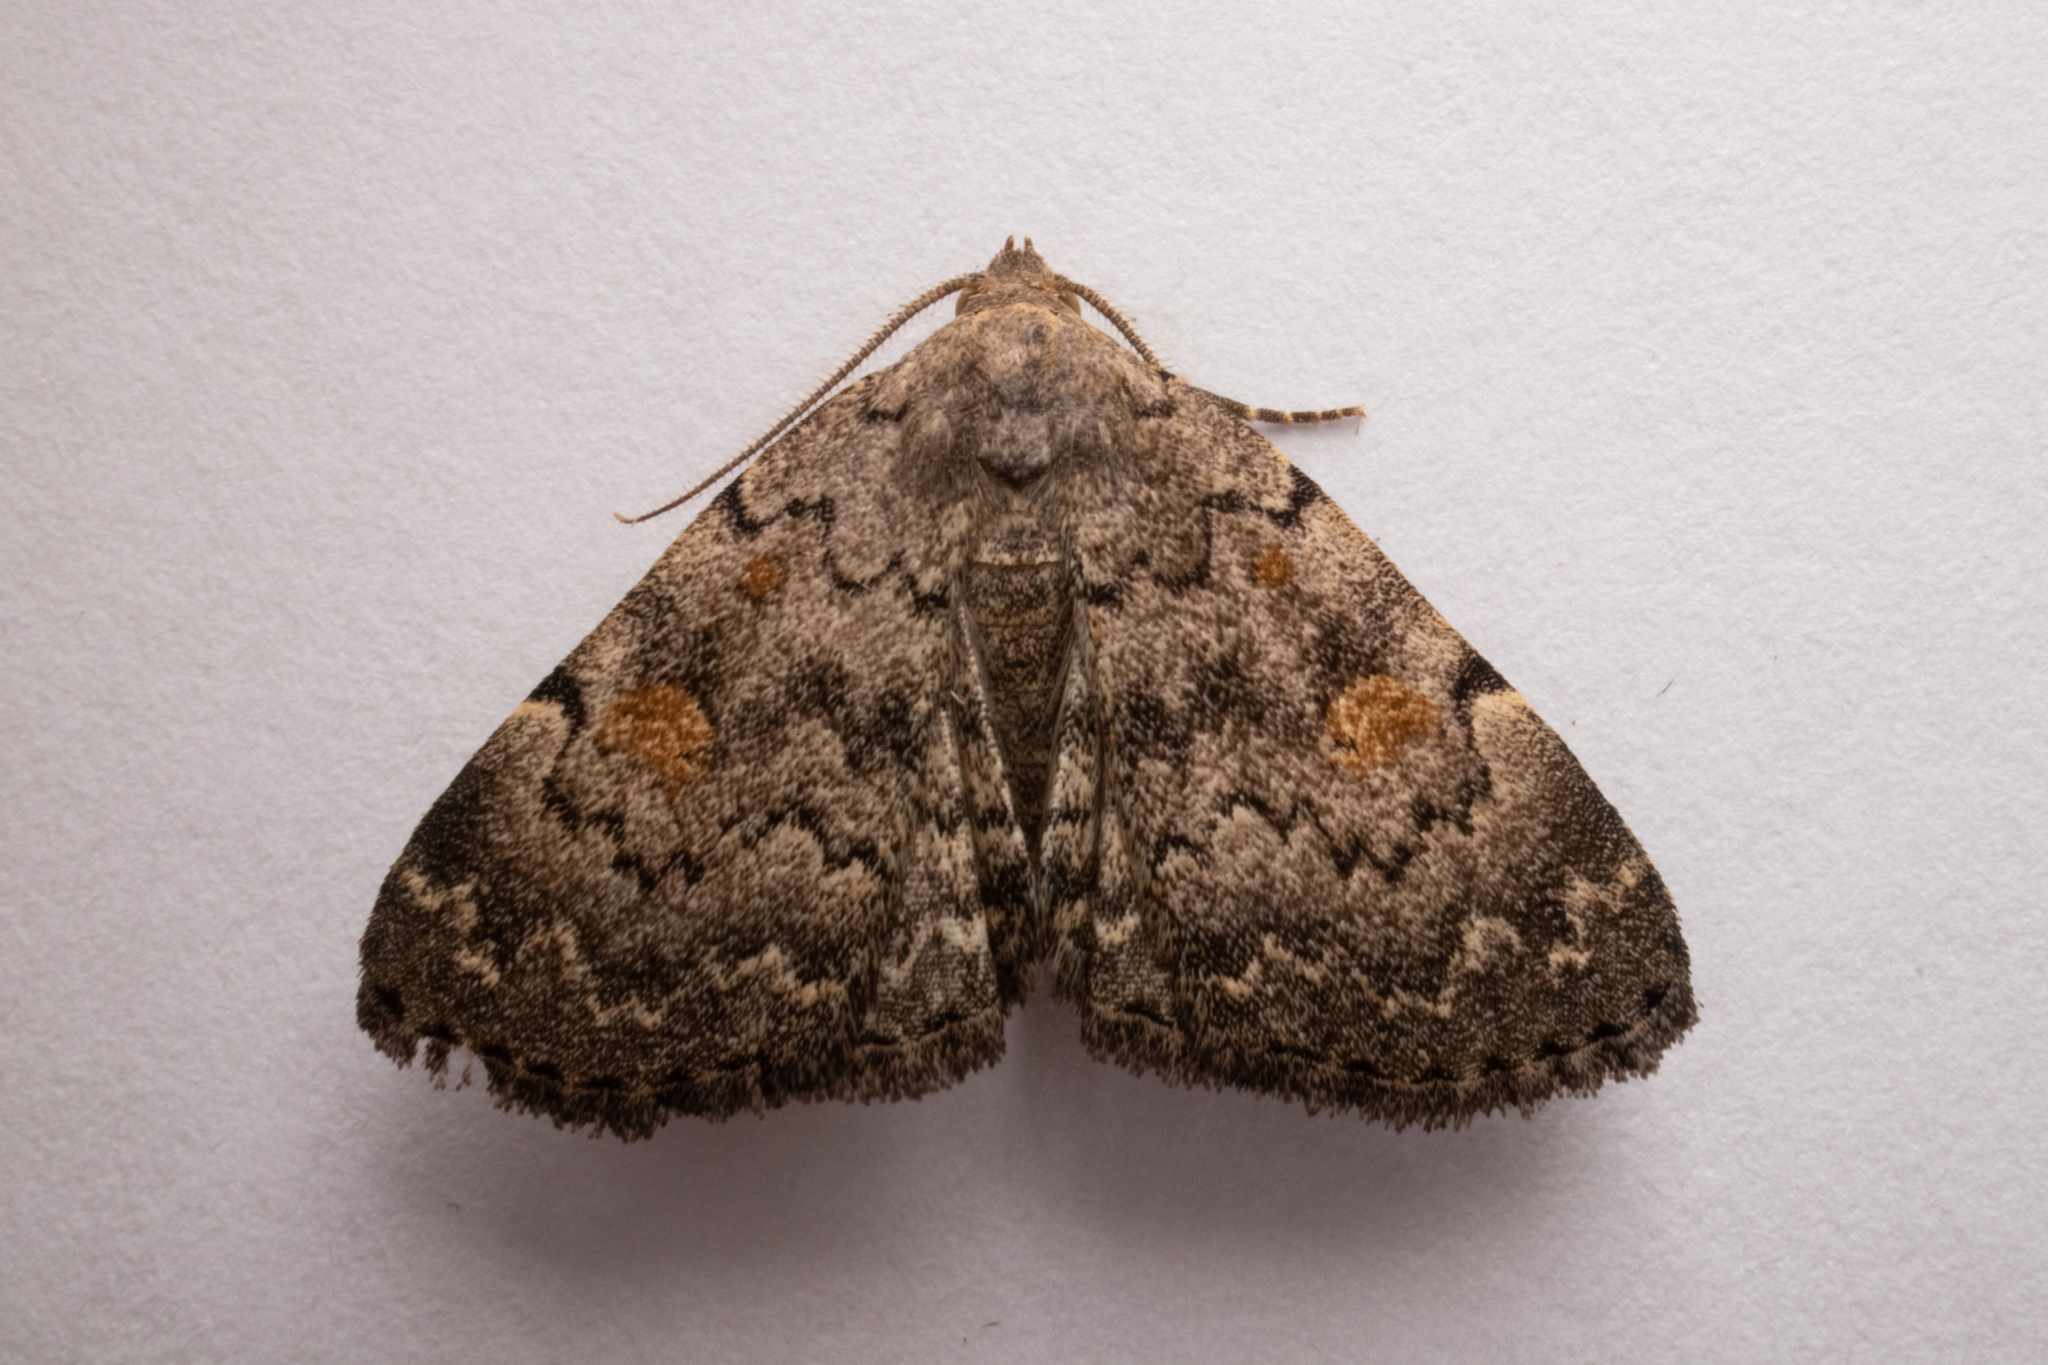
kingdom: Animalia
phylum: Arthropoda
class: Insecta
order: Lepidoptera
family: Erebidae
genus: Idia
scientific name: Idia aemula
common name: Common idia moth
